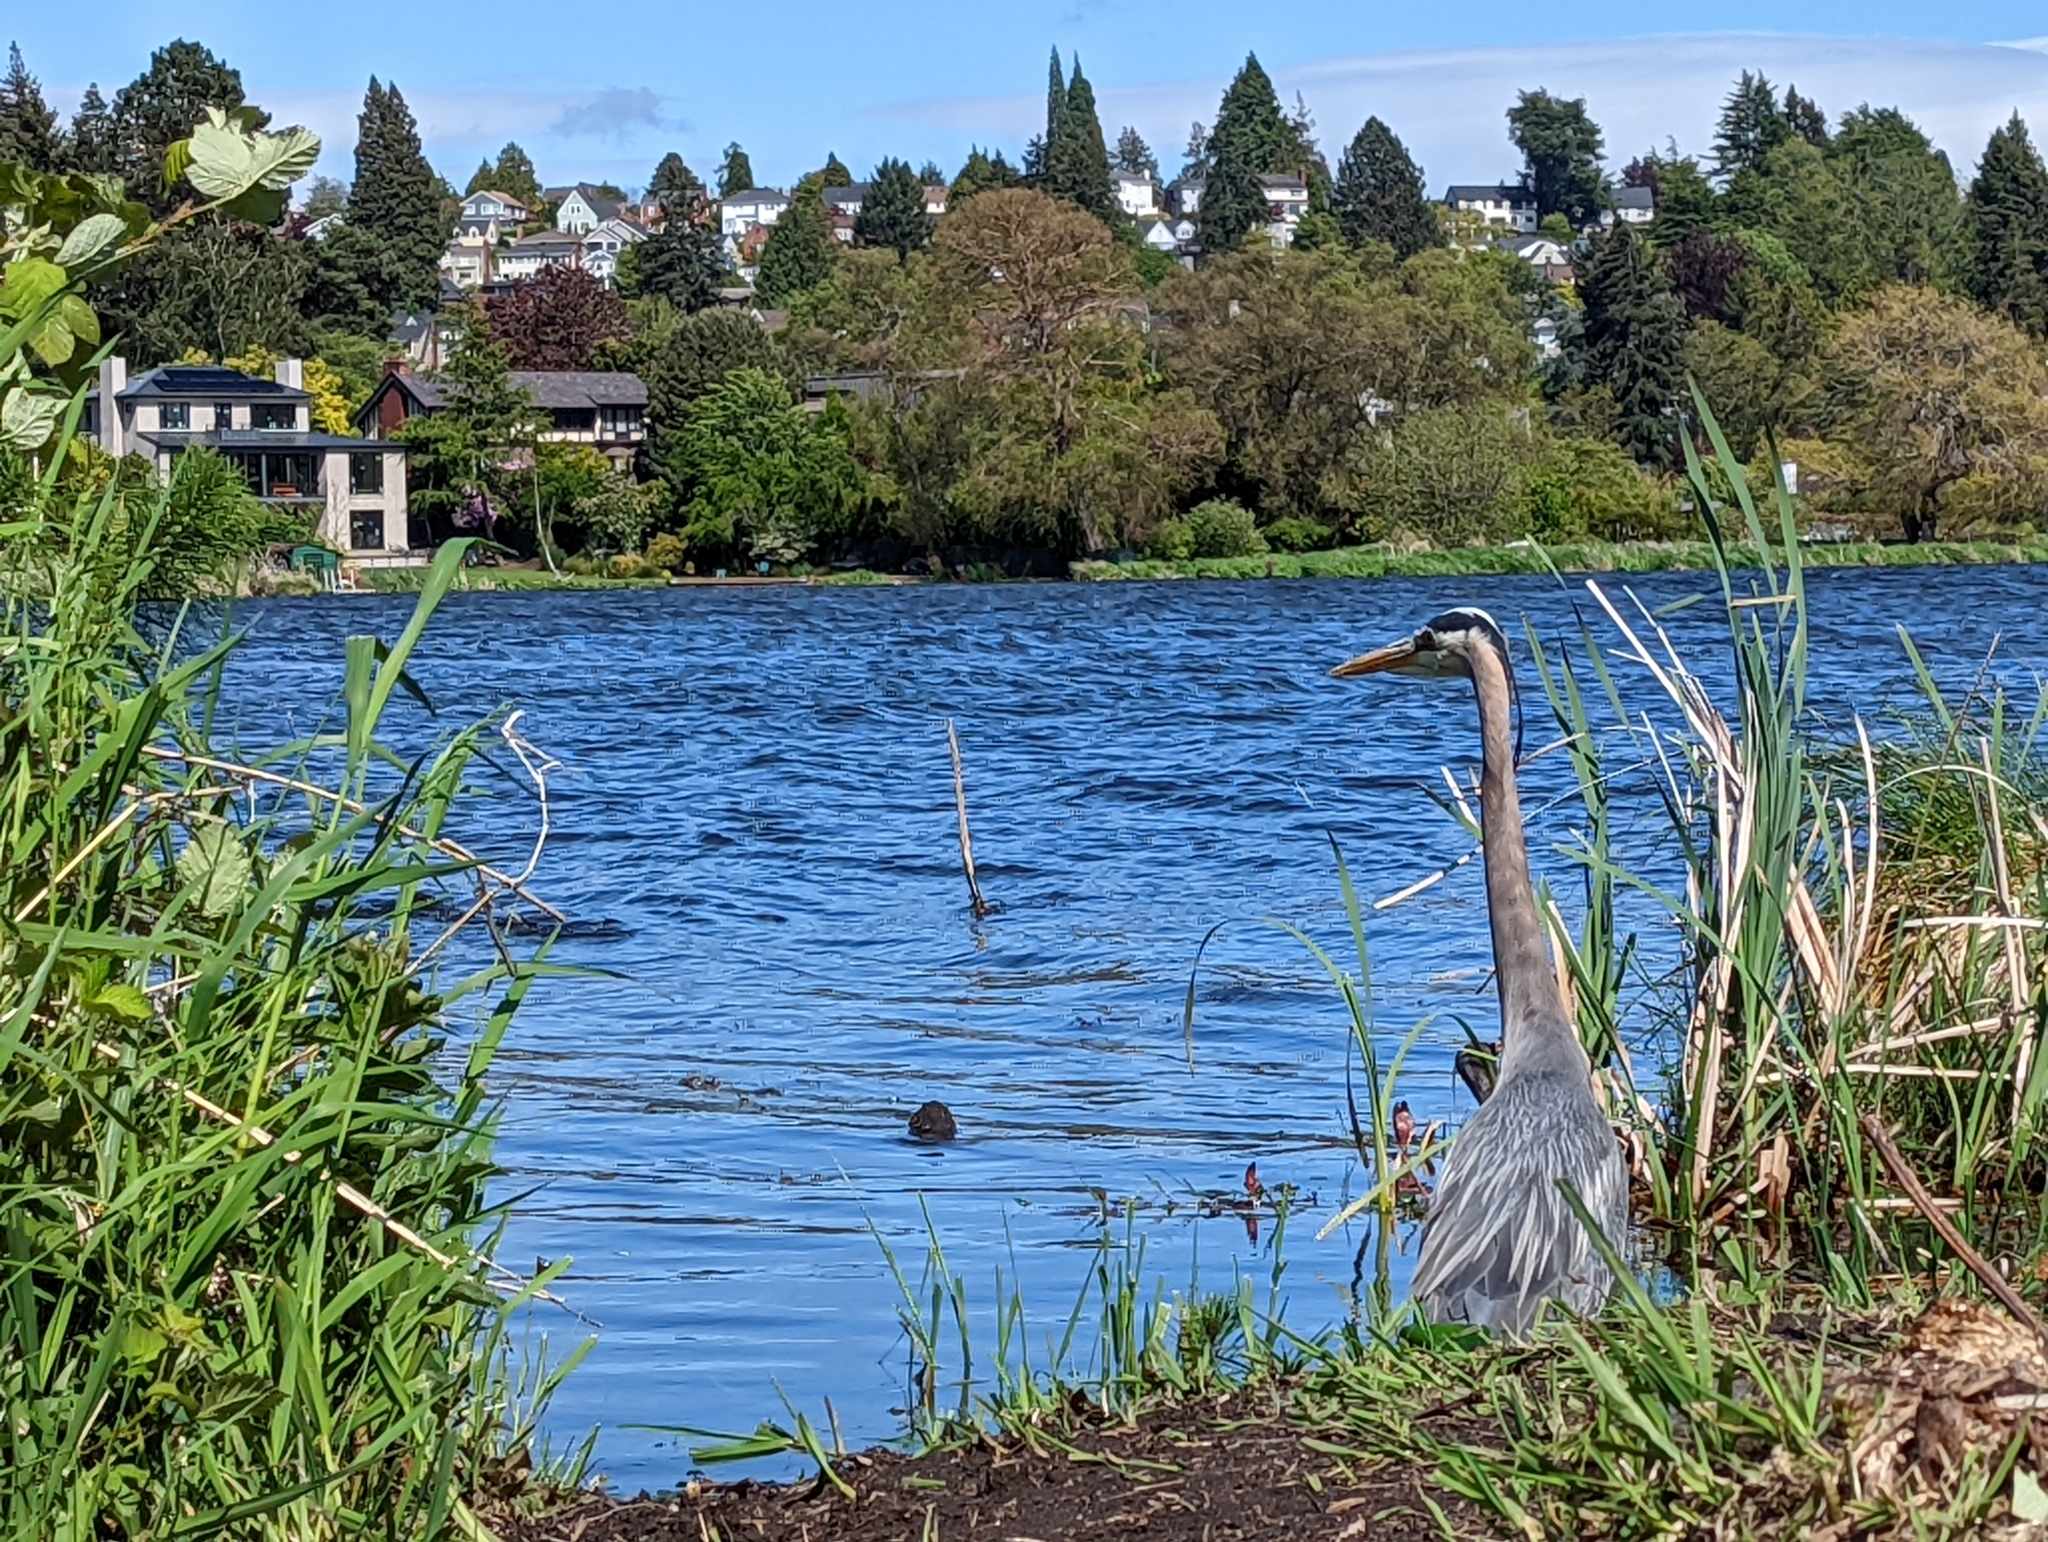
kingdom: Animalia
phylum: Chordata
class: Aves
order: Pelecaniformes
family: Ardeidae
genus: Ardea
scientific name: Ardea herodias
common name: Great blue heron
